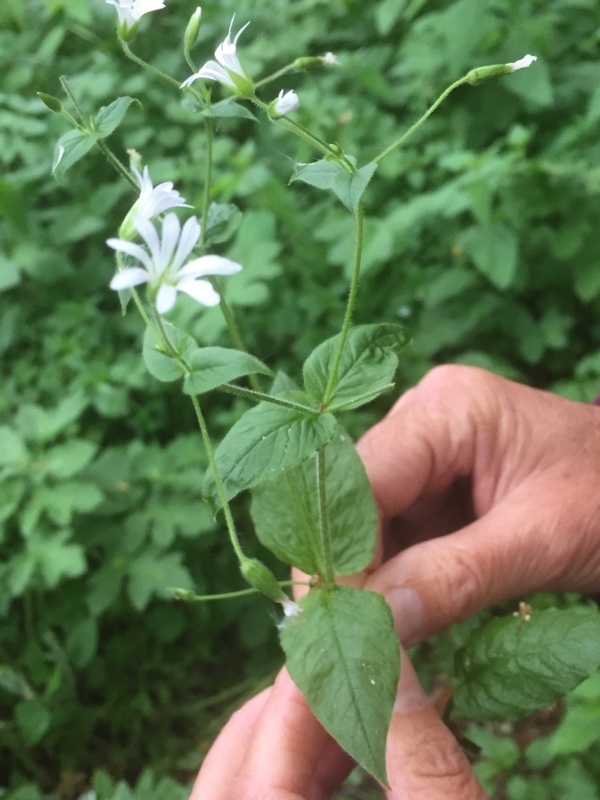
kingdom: Plantae
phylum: Tracheophyta
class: Magnoliopsida
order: Caryophyllales
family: Caryophyllaceae
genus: Stellaria
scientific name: Stellaria nemorum
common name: Wood stitchwort
